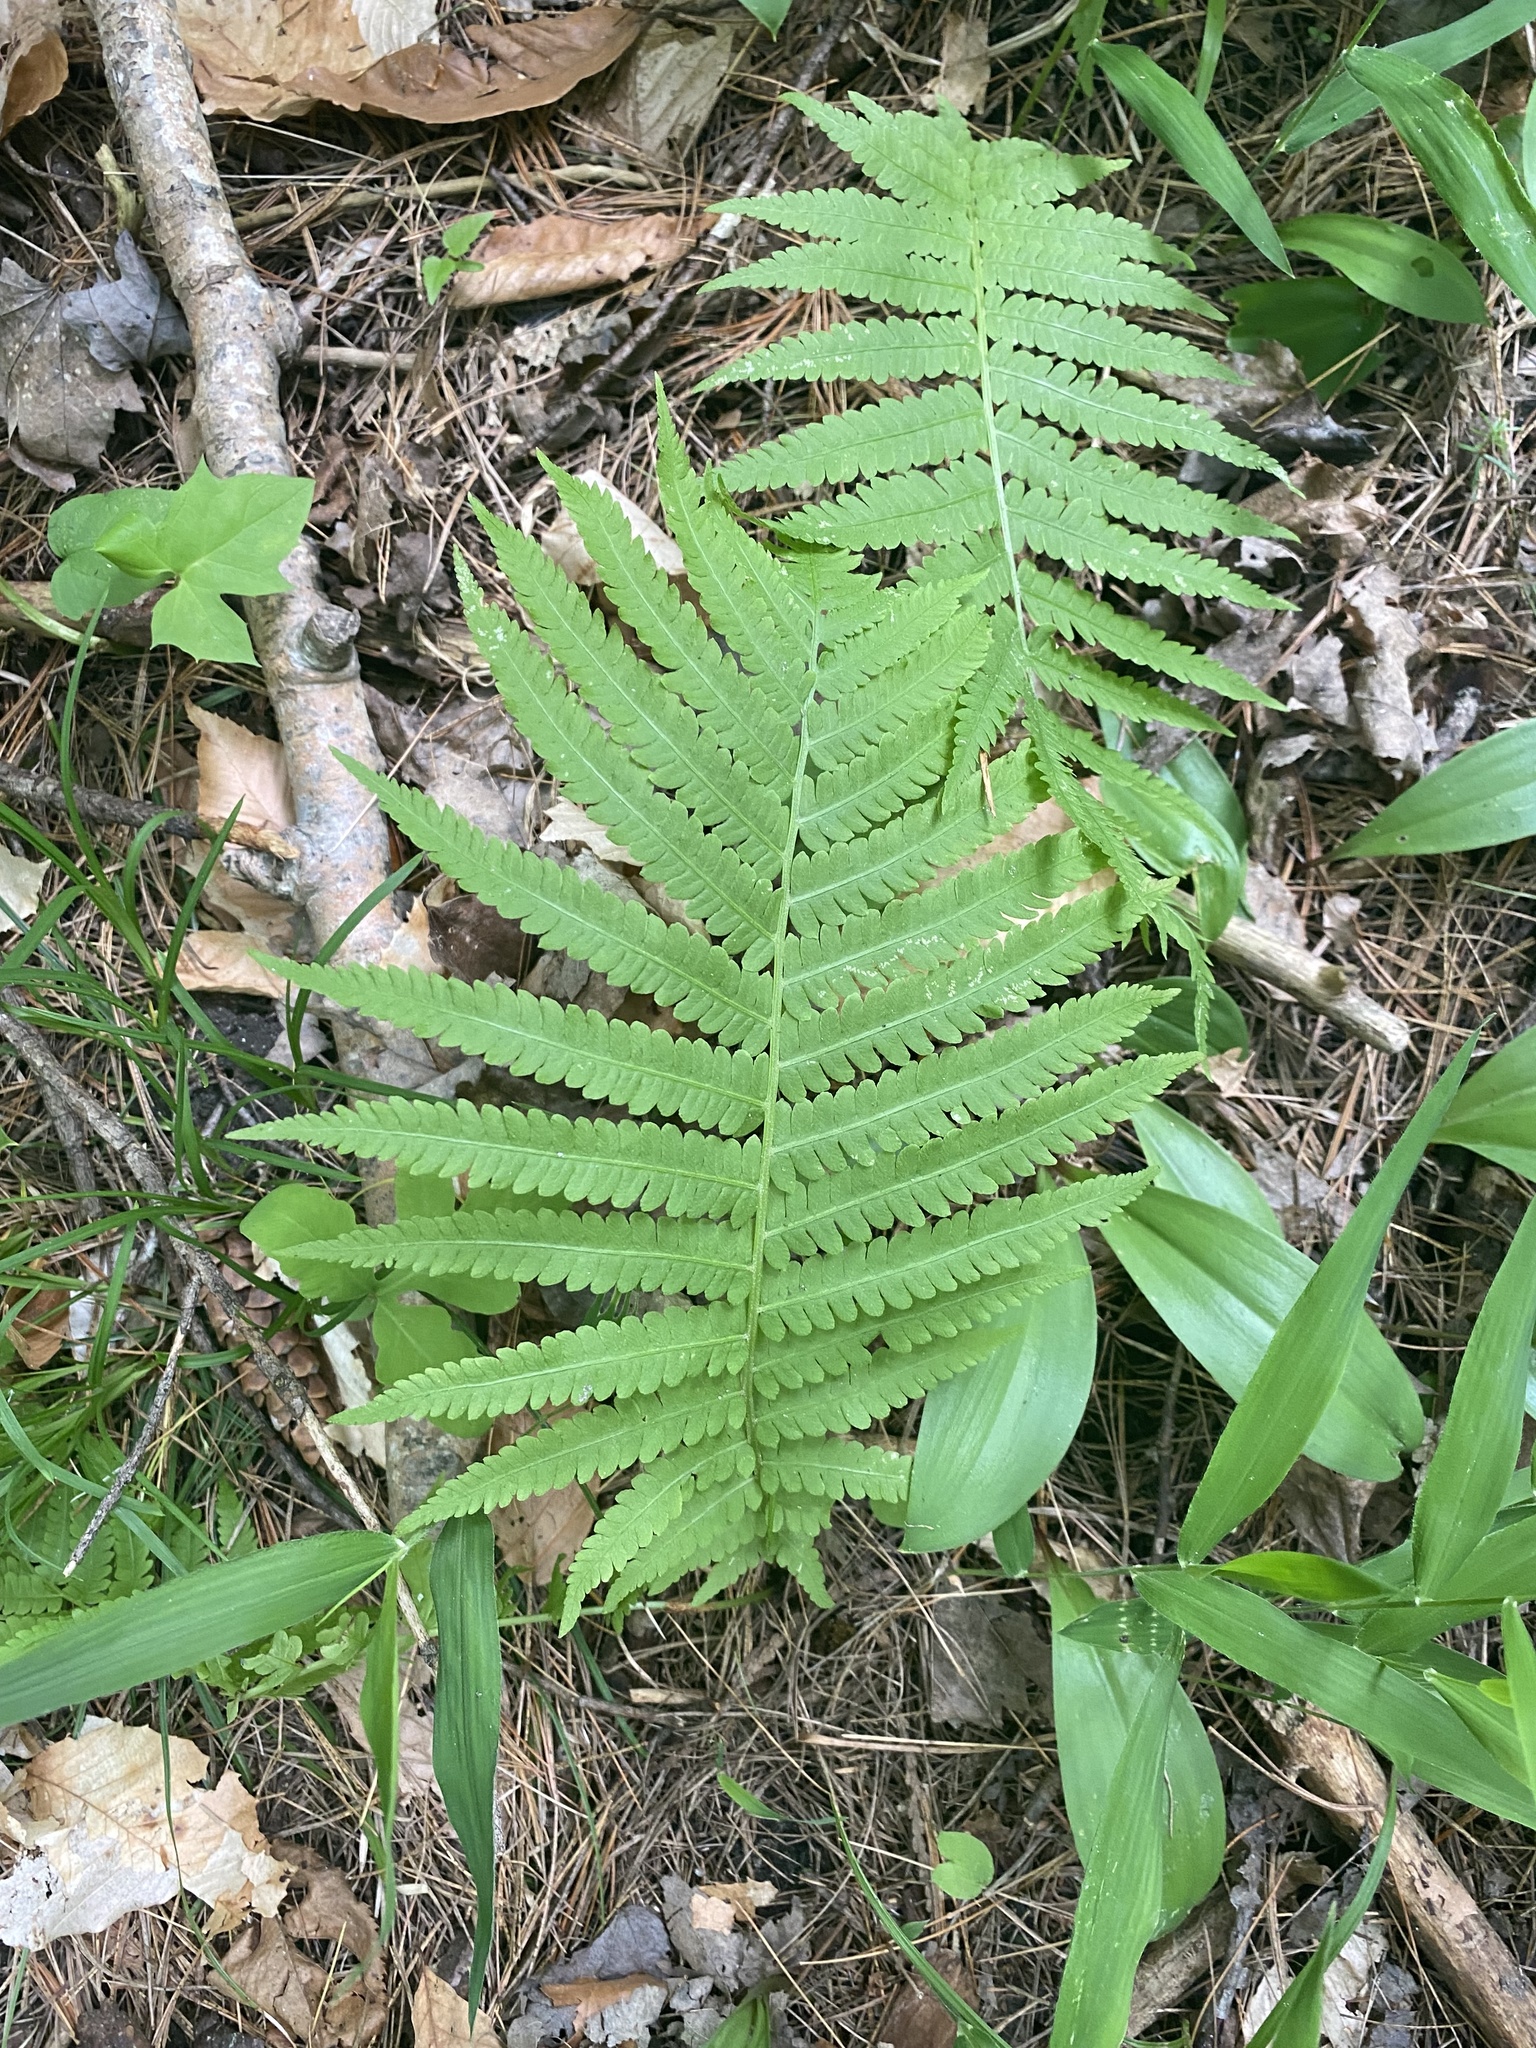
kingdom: Plantae
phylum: Tracheophyta
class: Polypodiopsida
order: Polypodiales
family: Onocleaceae
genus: Matteuccia
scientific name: Matteuccia struthiopteris
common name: Ostrich fern
